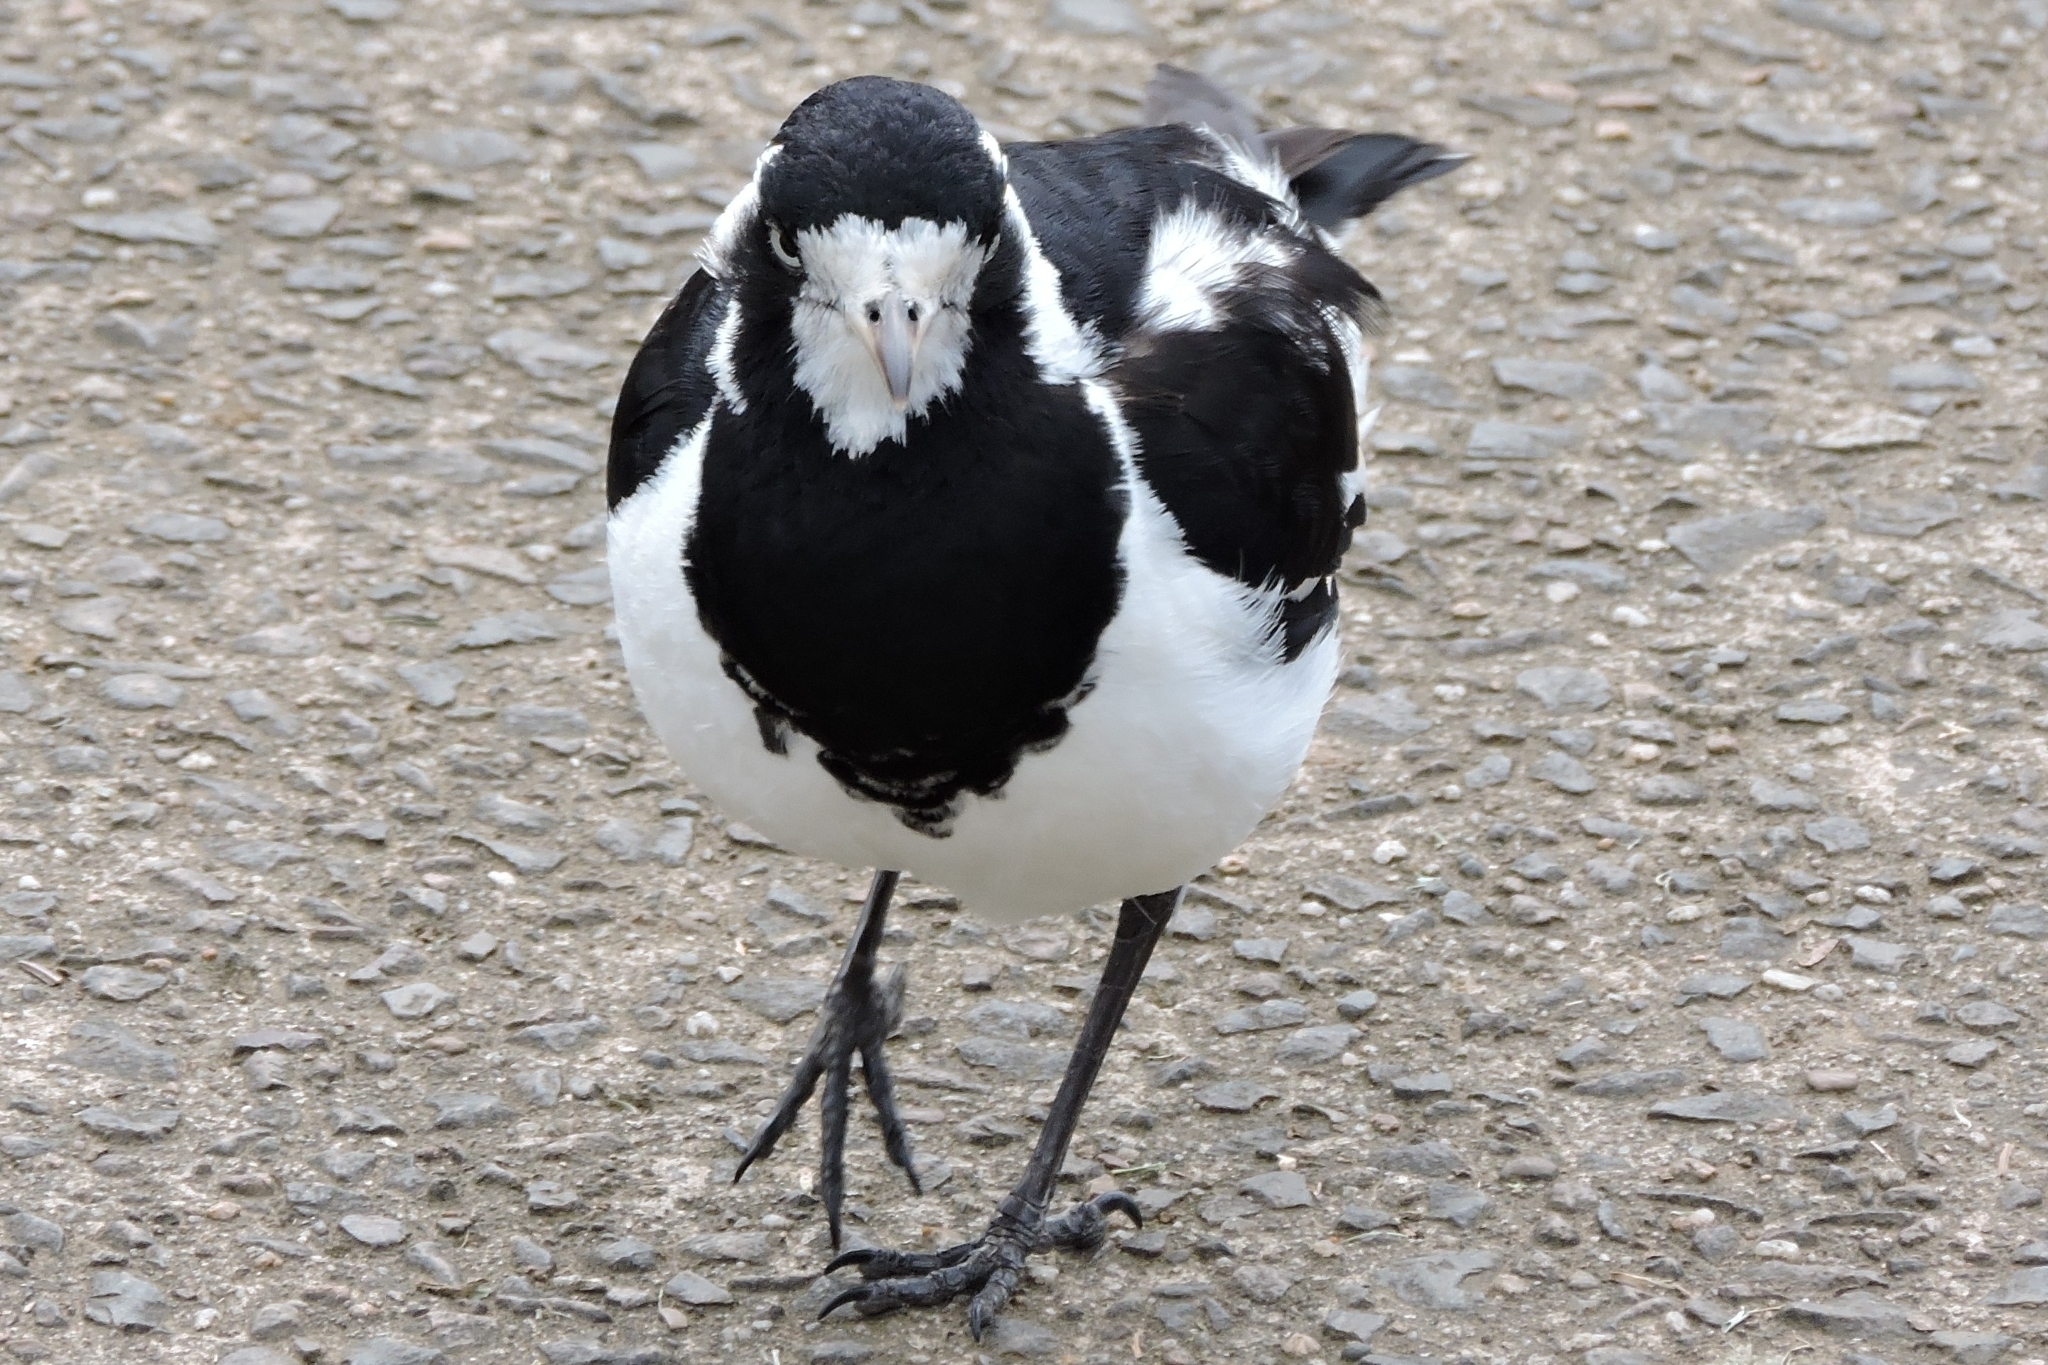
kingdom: Animalia
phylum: Chordata
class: Aves
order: Passeriformes
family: Monarchidae
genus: Grallina
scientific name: Grallina cyanoleuca
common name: Magpie-lark
